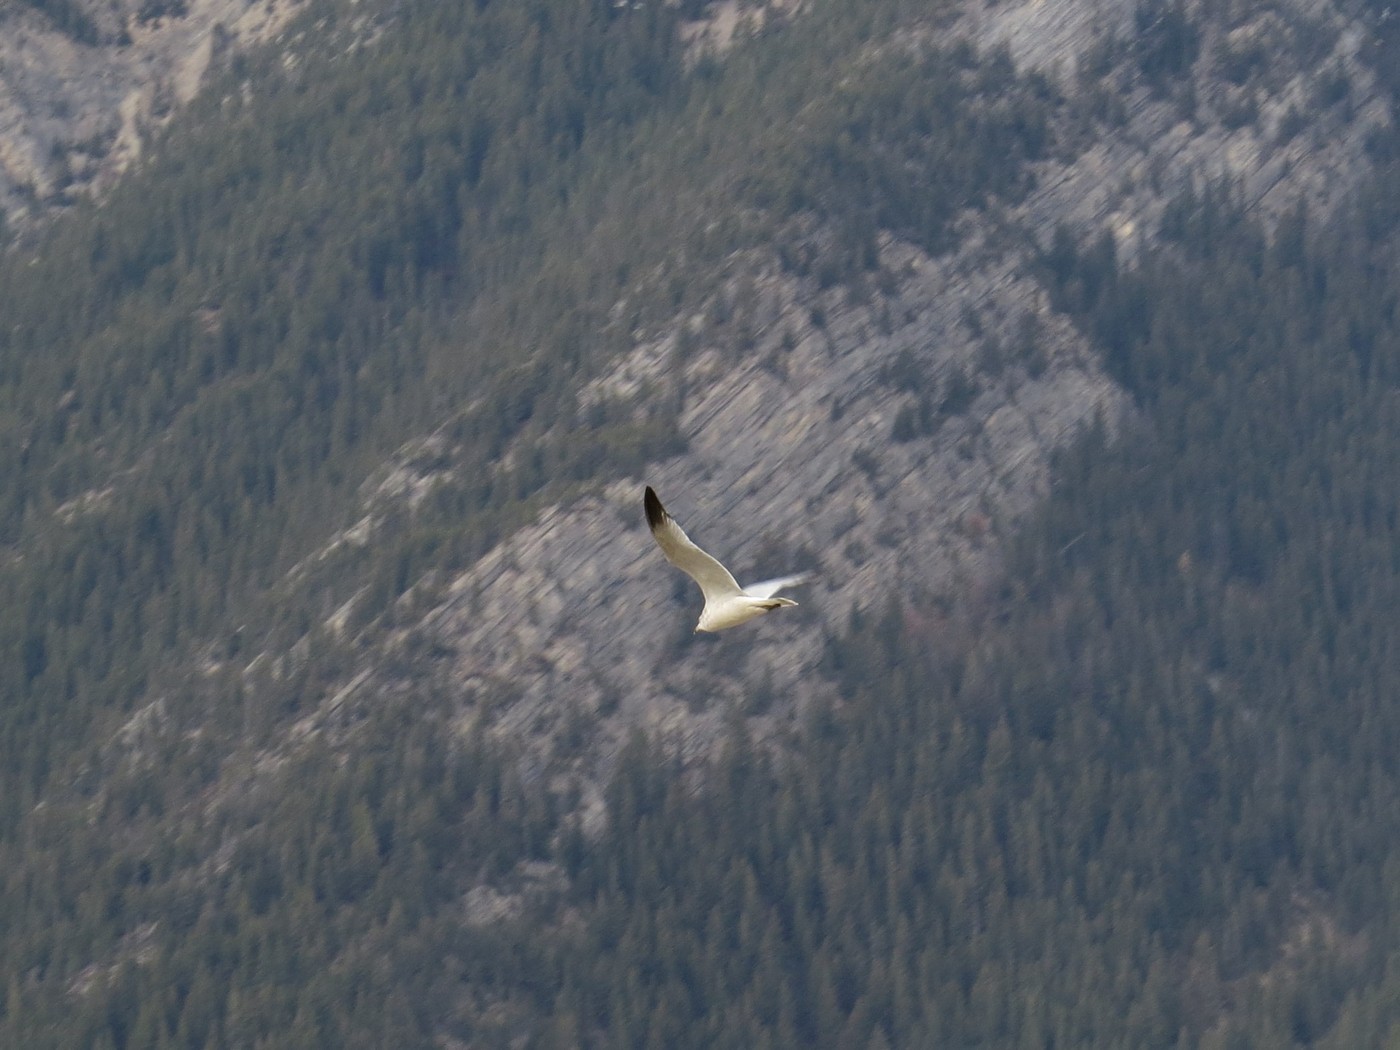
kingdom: Animalia
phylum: Chordata
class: Aves
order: Charadriiformes
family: Laridae
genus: Larus
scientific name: Larus delawarensis
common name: Ring-billed gull
